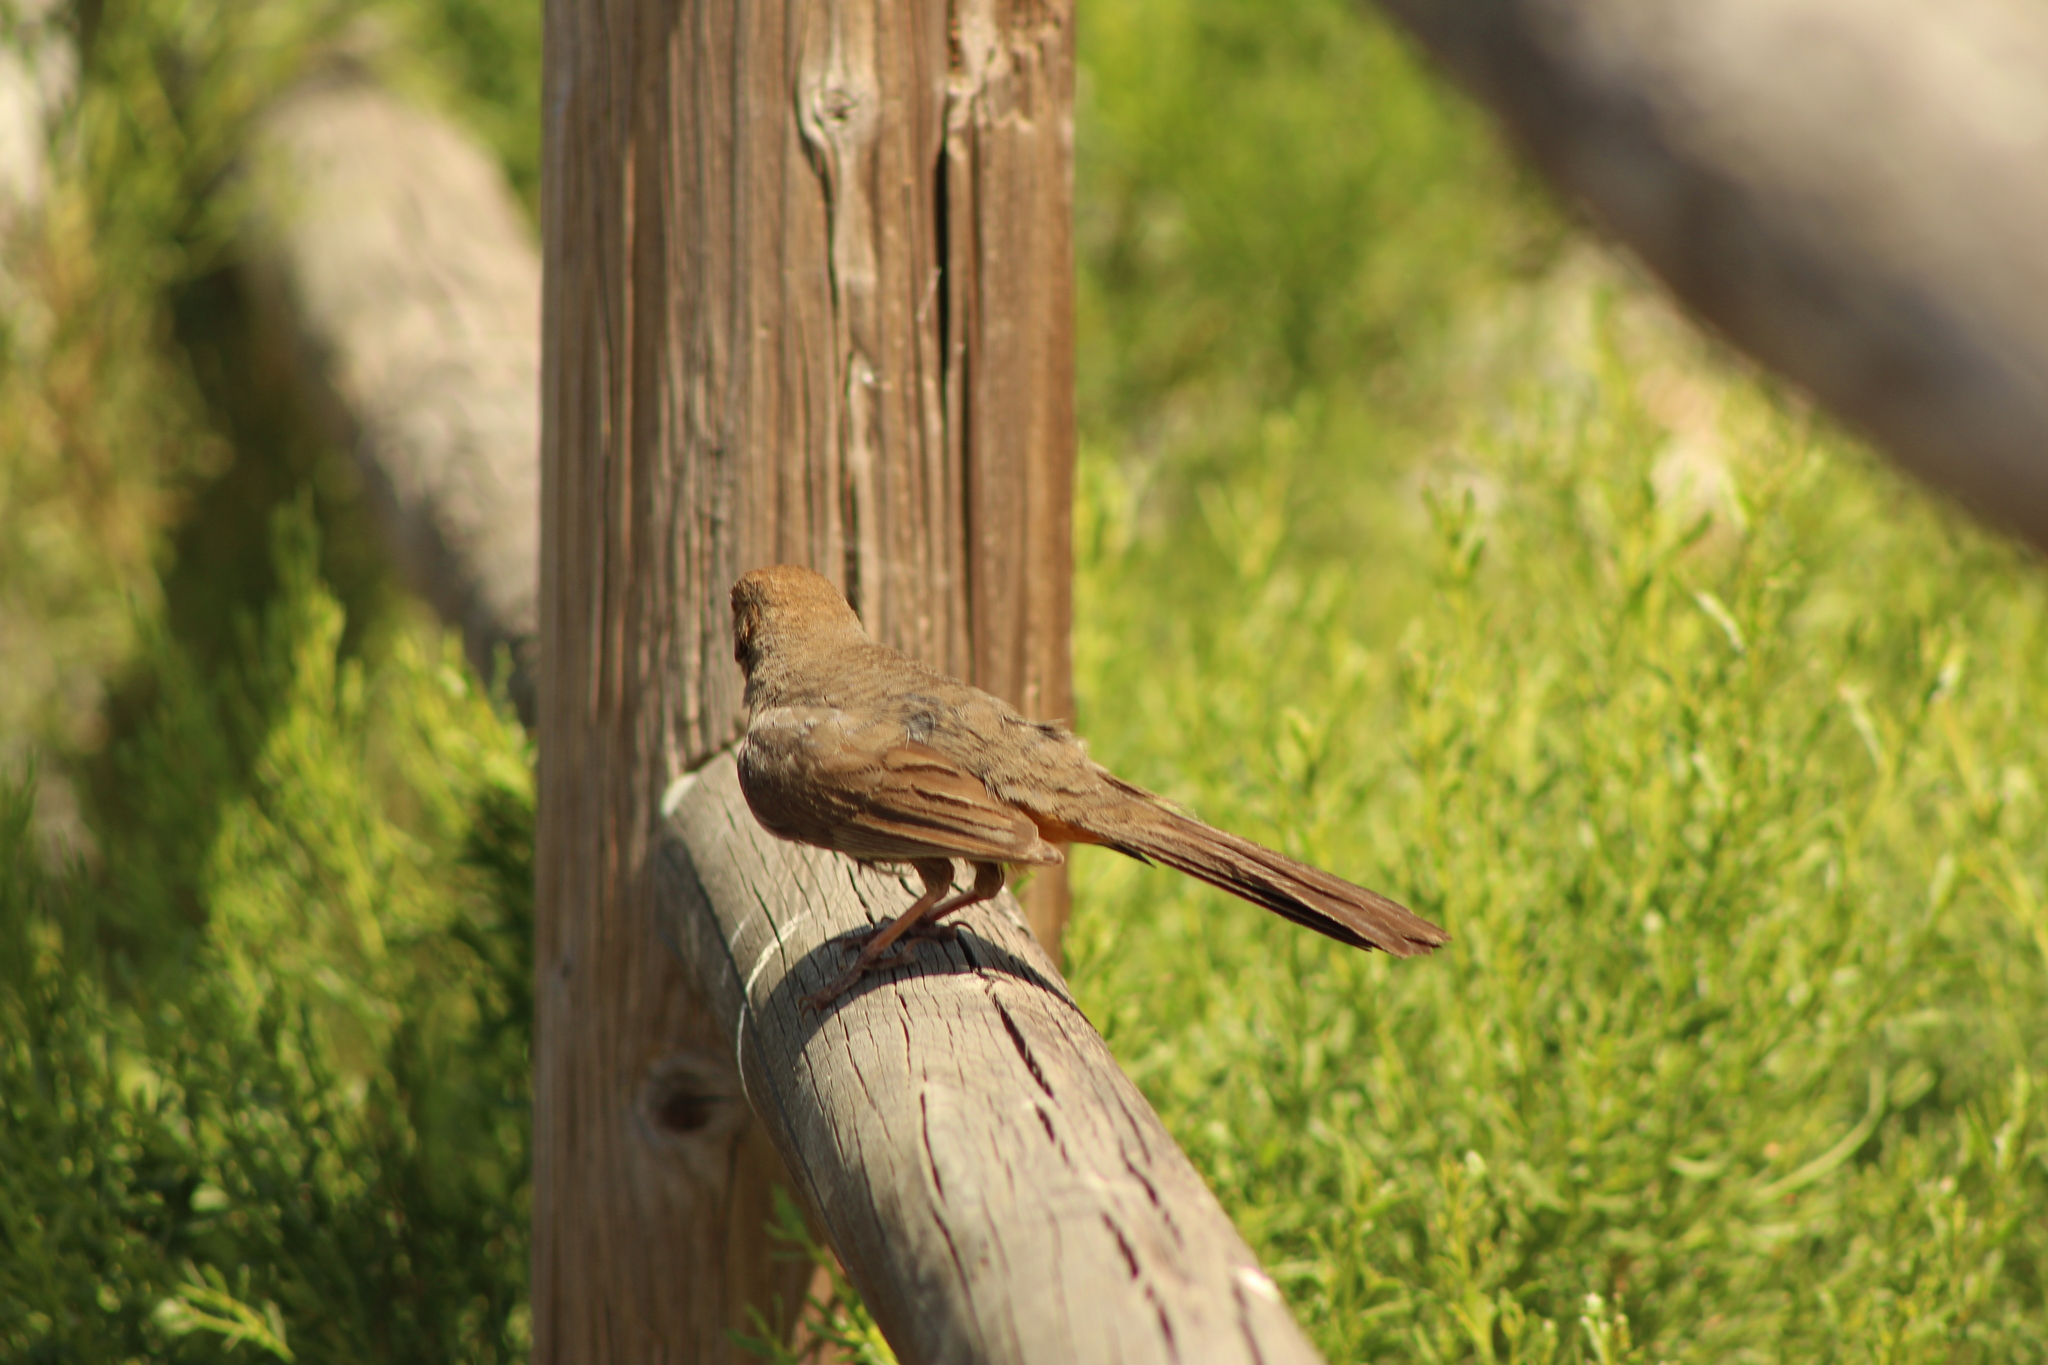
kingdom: Animalia
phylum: Chordata
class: Aves
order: Passeriformes
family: Passerellidae
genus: Melozone
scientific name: Melozone crissalis
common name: California towhee
